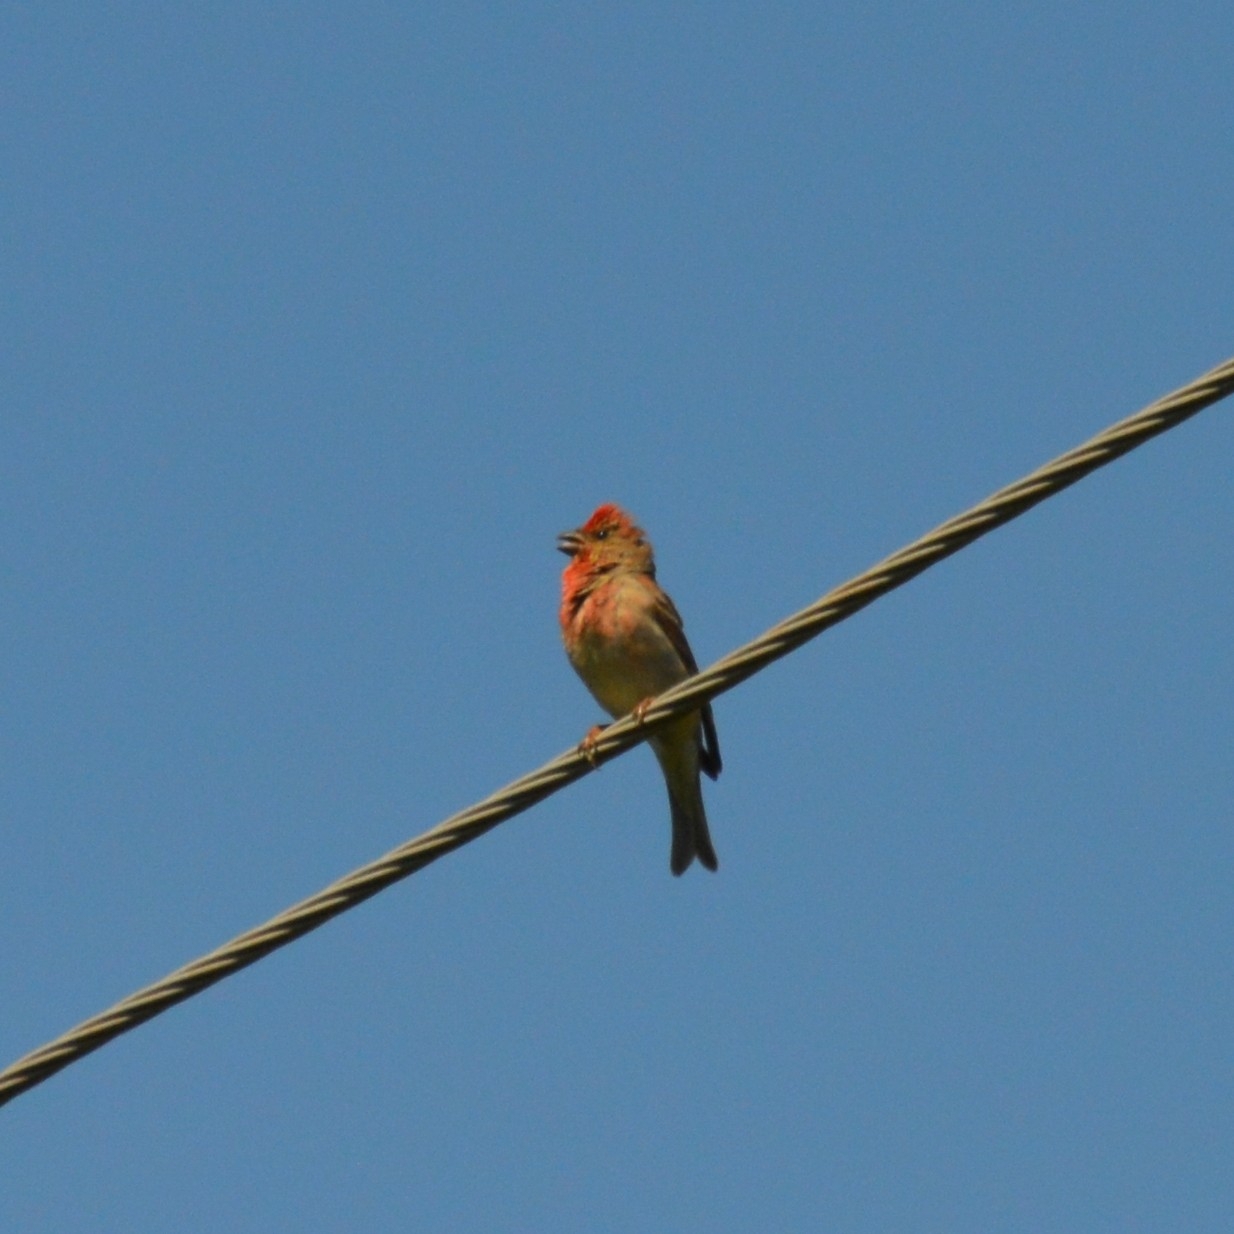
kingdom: Animalia
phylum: Chordata
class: Aves
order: Passeriformes
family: Fringillidae
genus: Carpodacus
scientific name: Carpodacus erythrinus
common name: Common rosefinch
